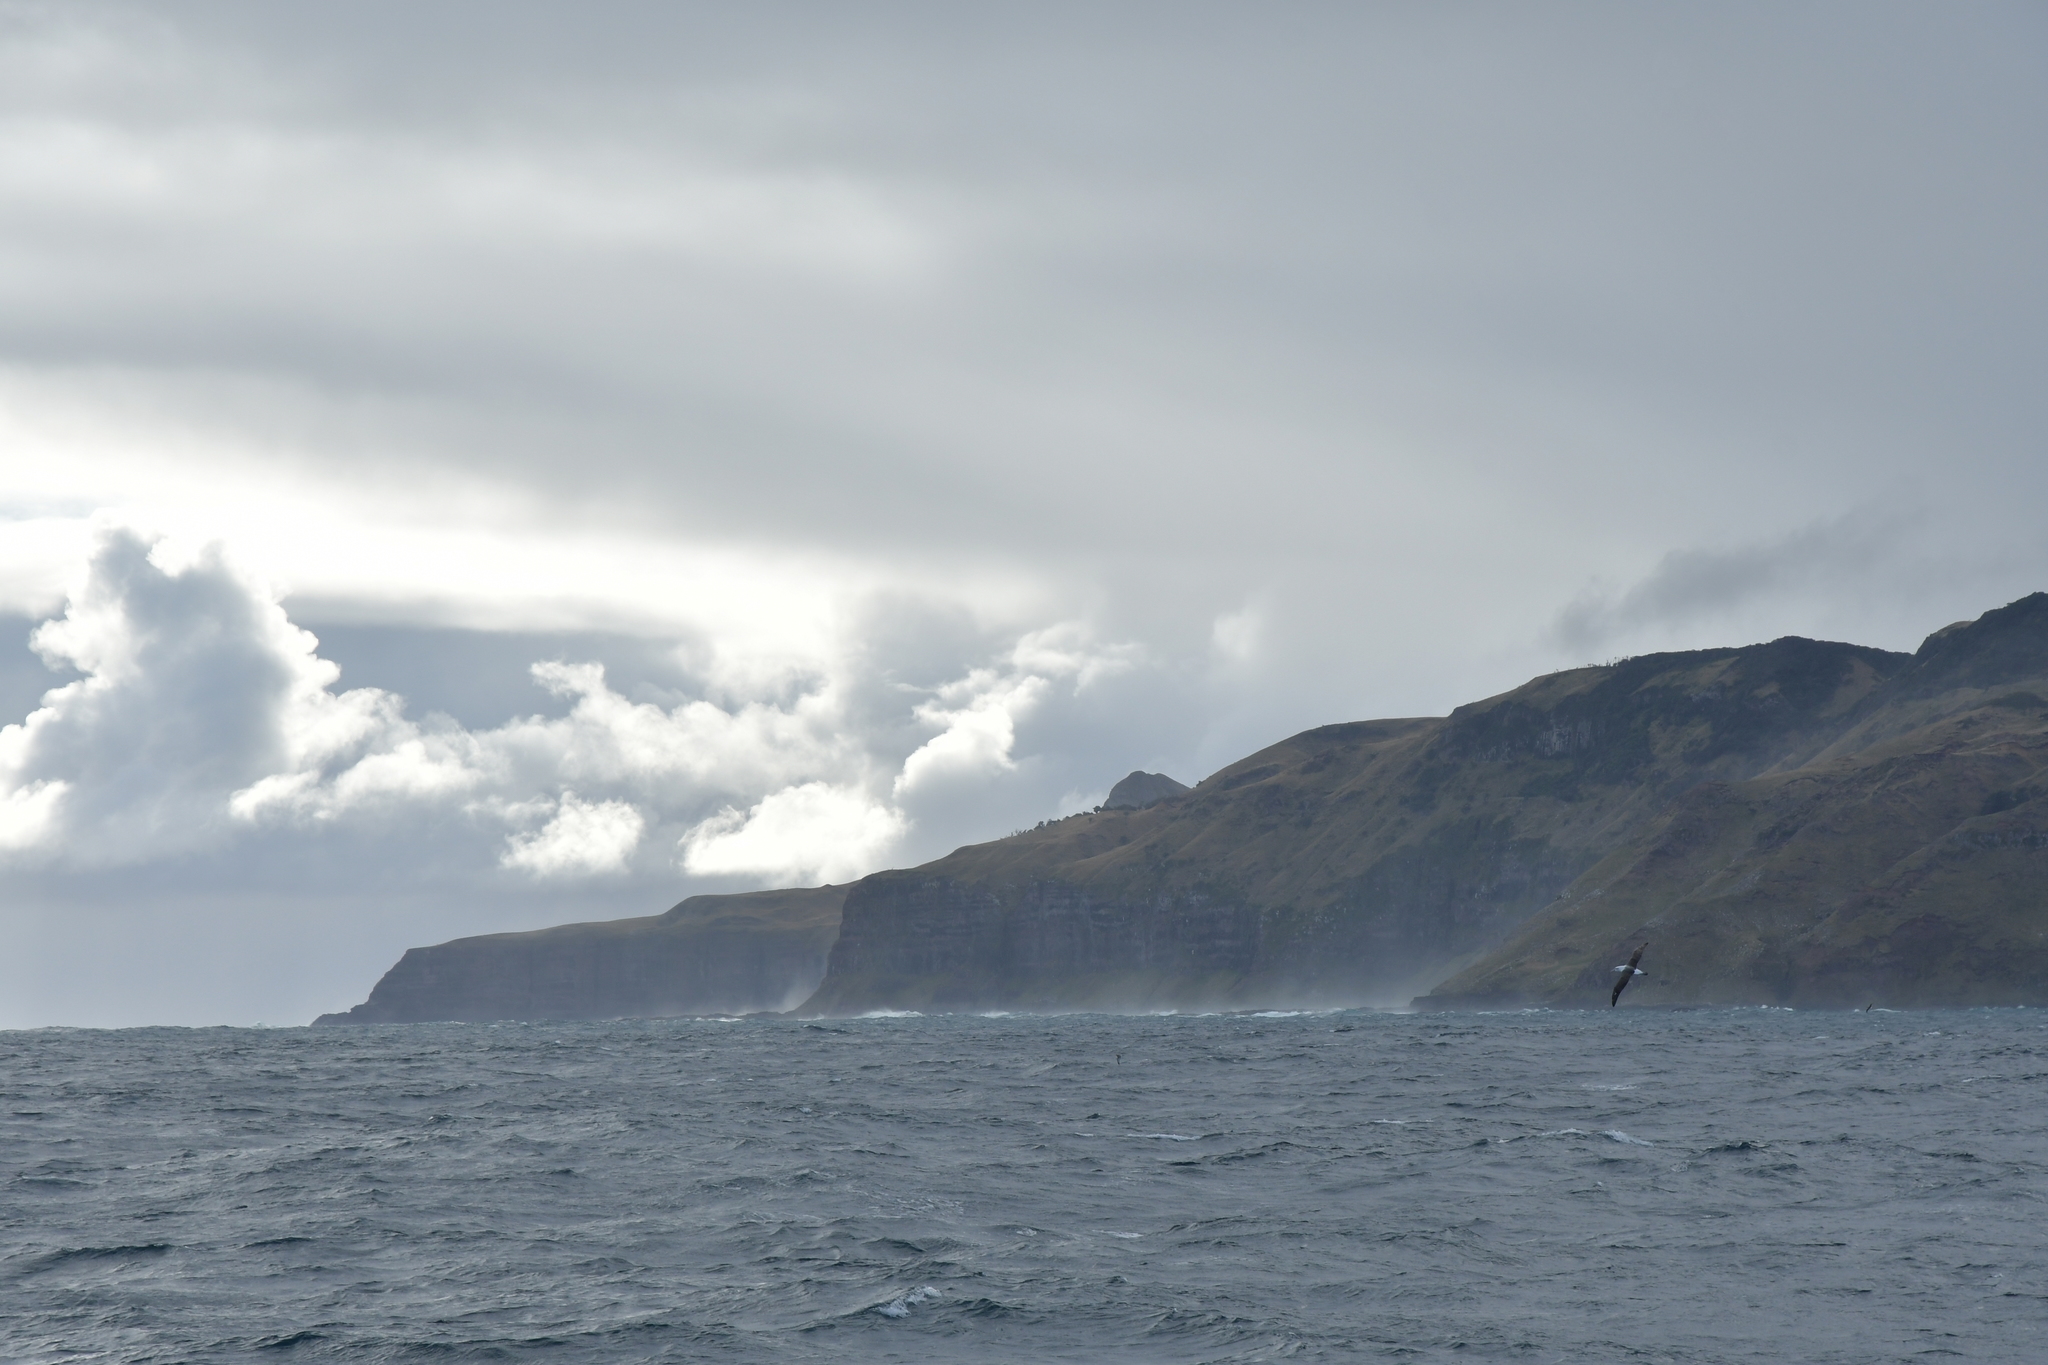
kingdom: Animalia
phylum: Chordata
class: Aves
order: Procellariiformes
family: Diomedeidae
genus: Thalassarche
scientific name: Thalassarche cauta
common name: Shy albatross
